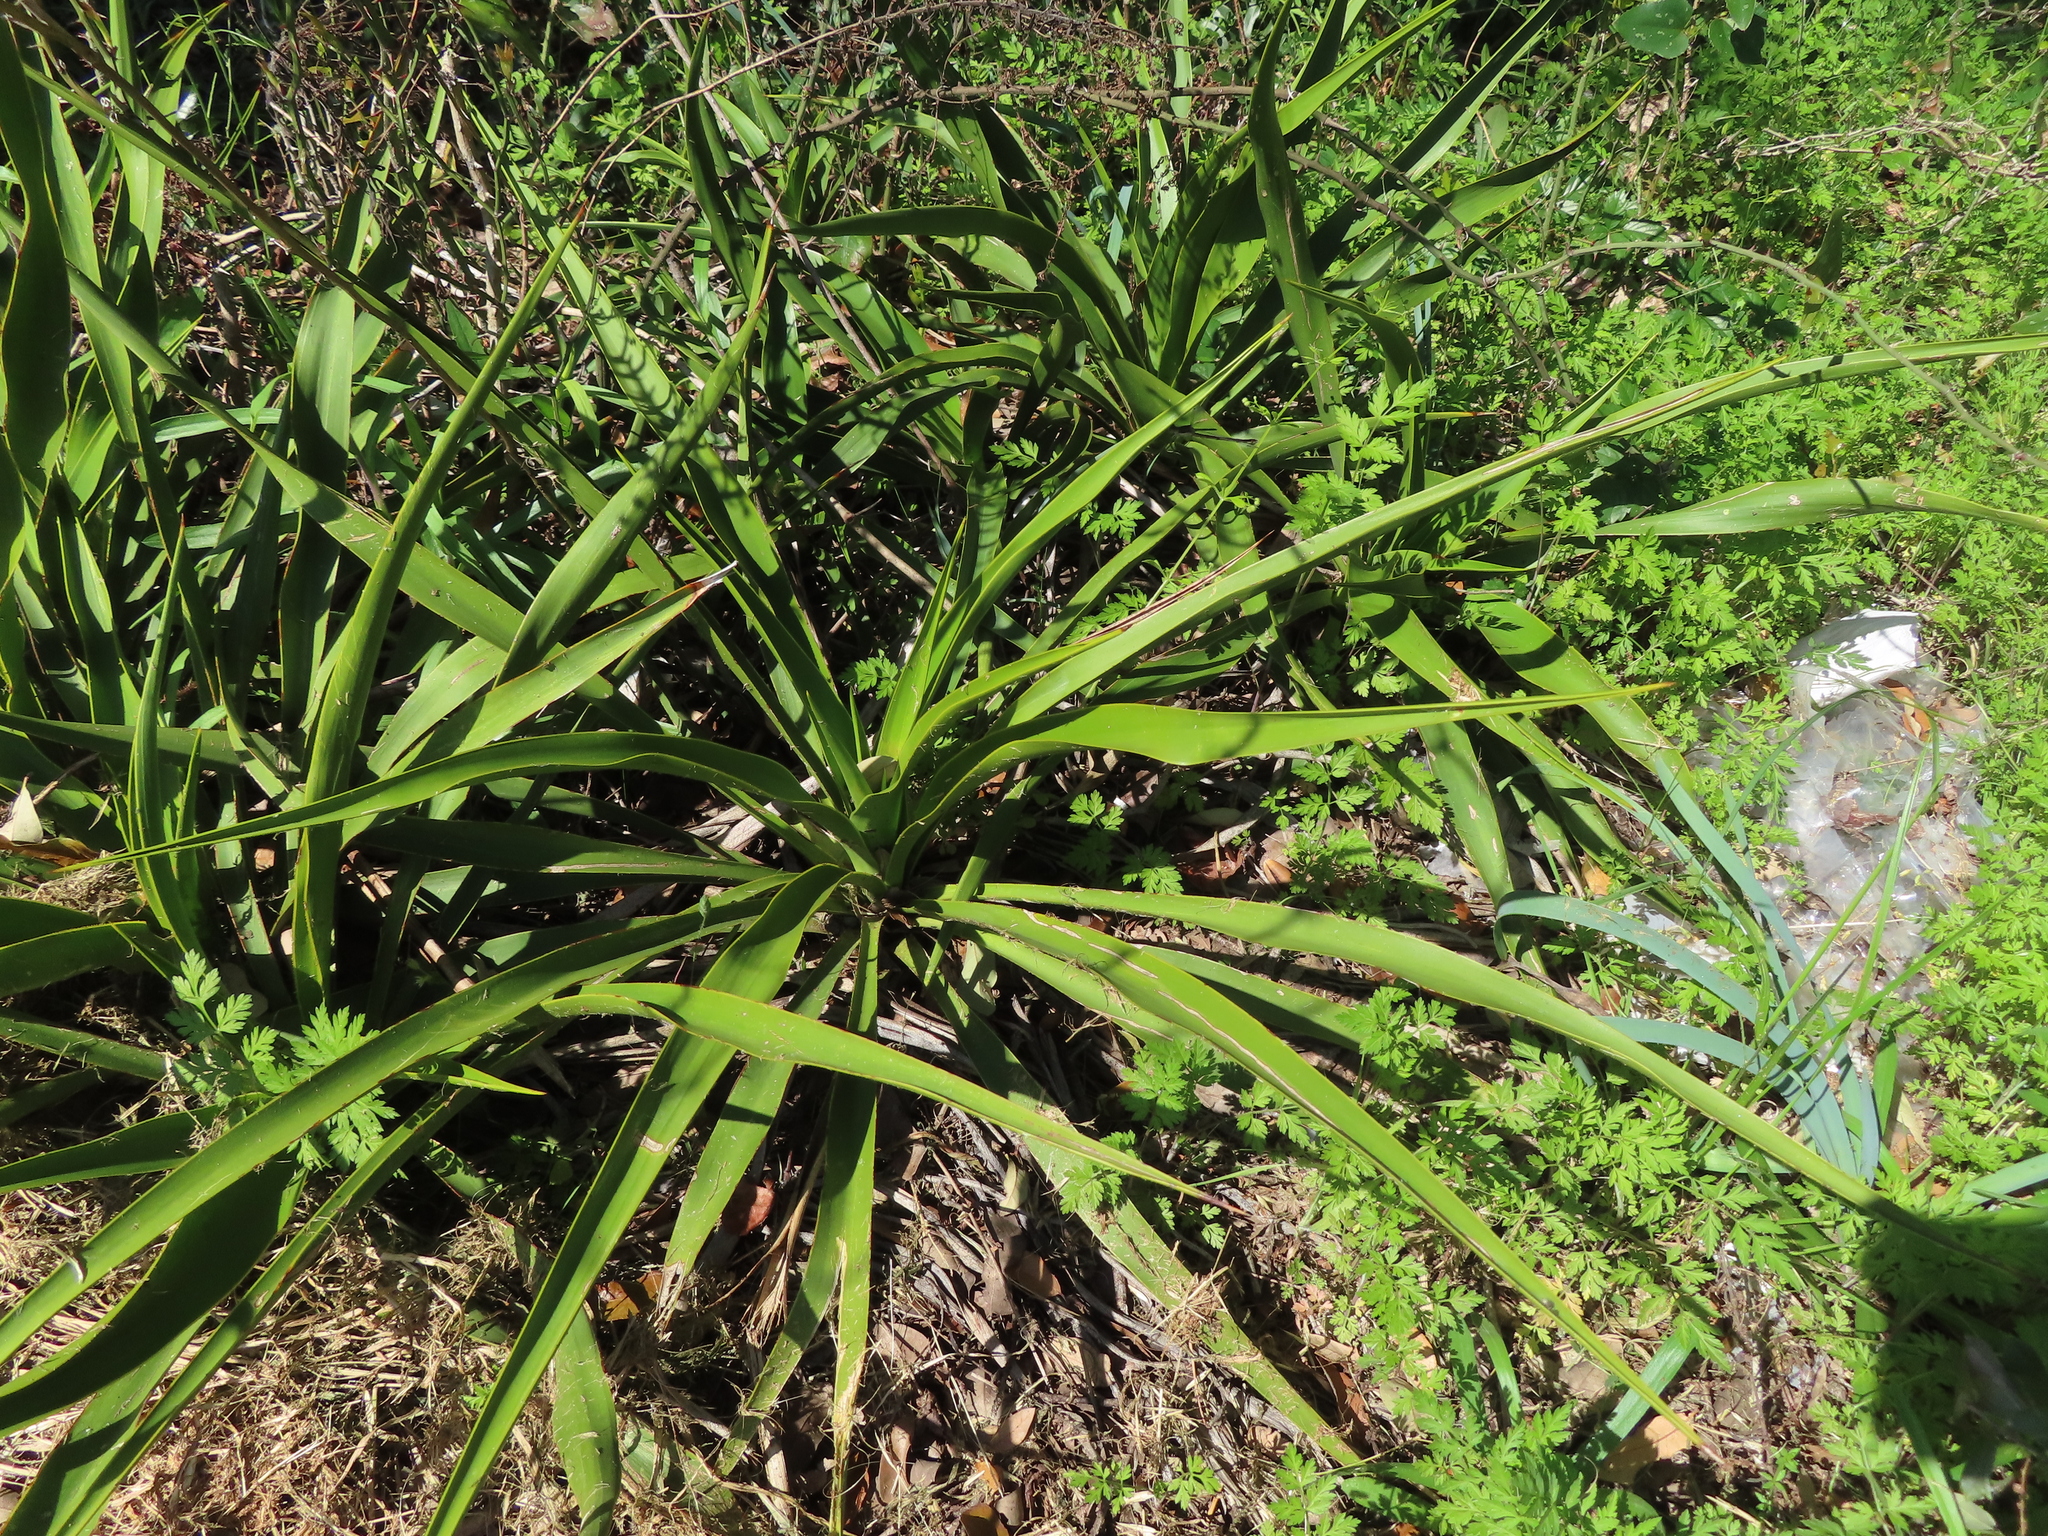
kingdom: Plantae
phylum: Tracheophyta
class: Liliopsida
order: Asparagales
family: Asparagaceae
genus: Yucca
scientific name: Yucca rupicola
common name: Twisted-leaf spanish-dagger
